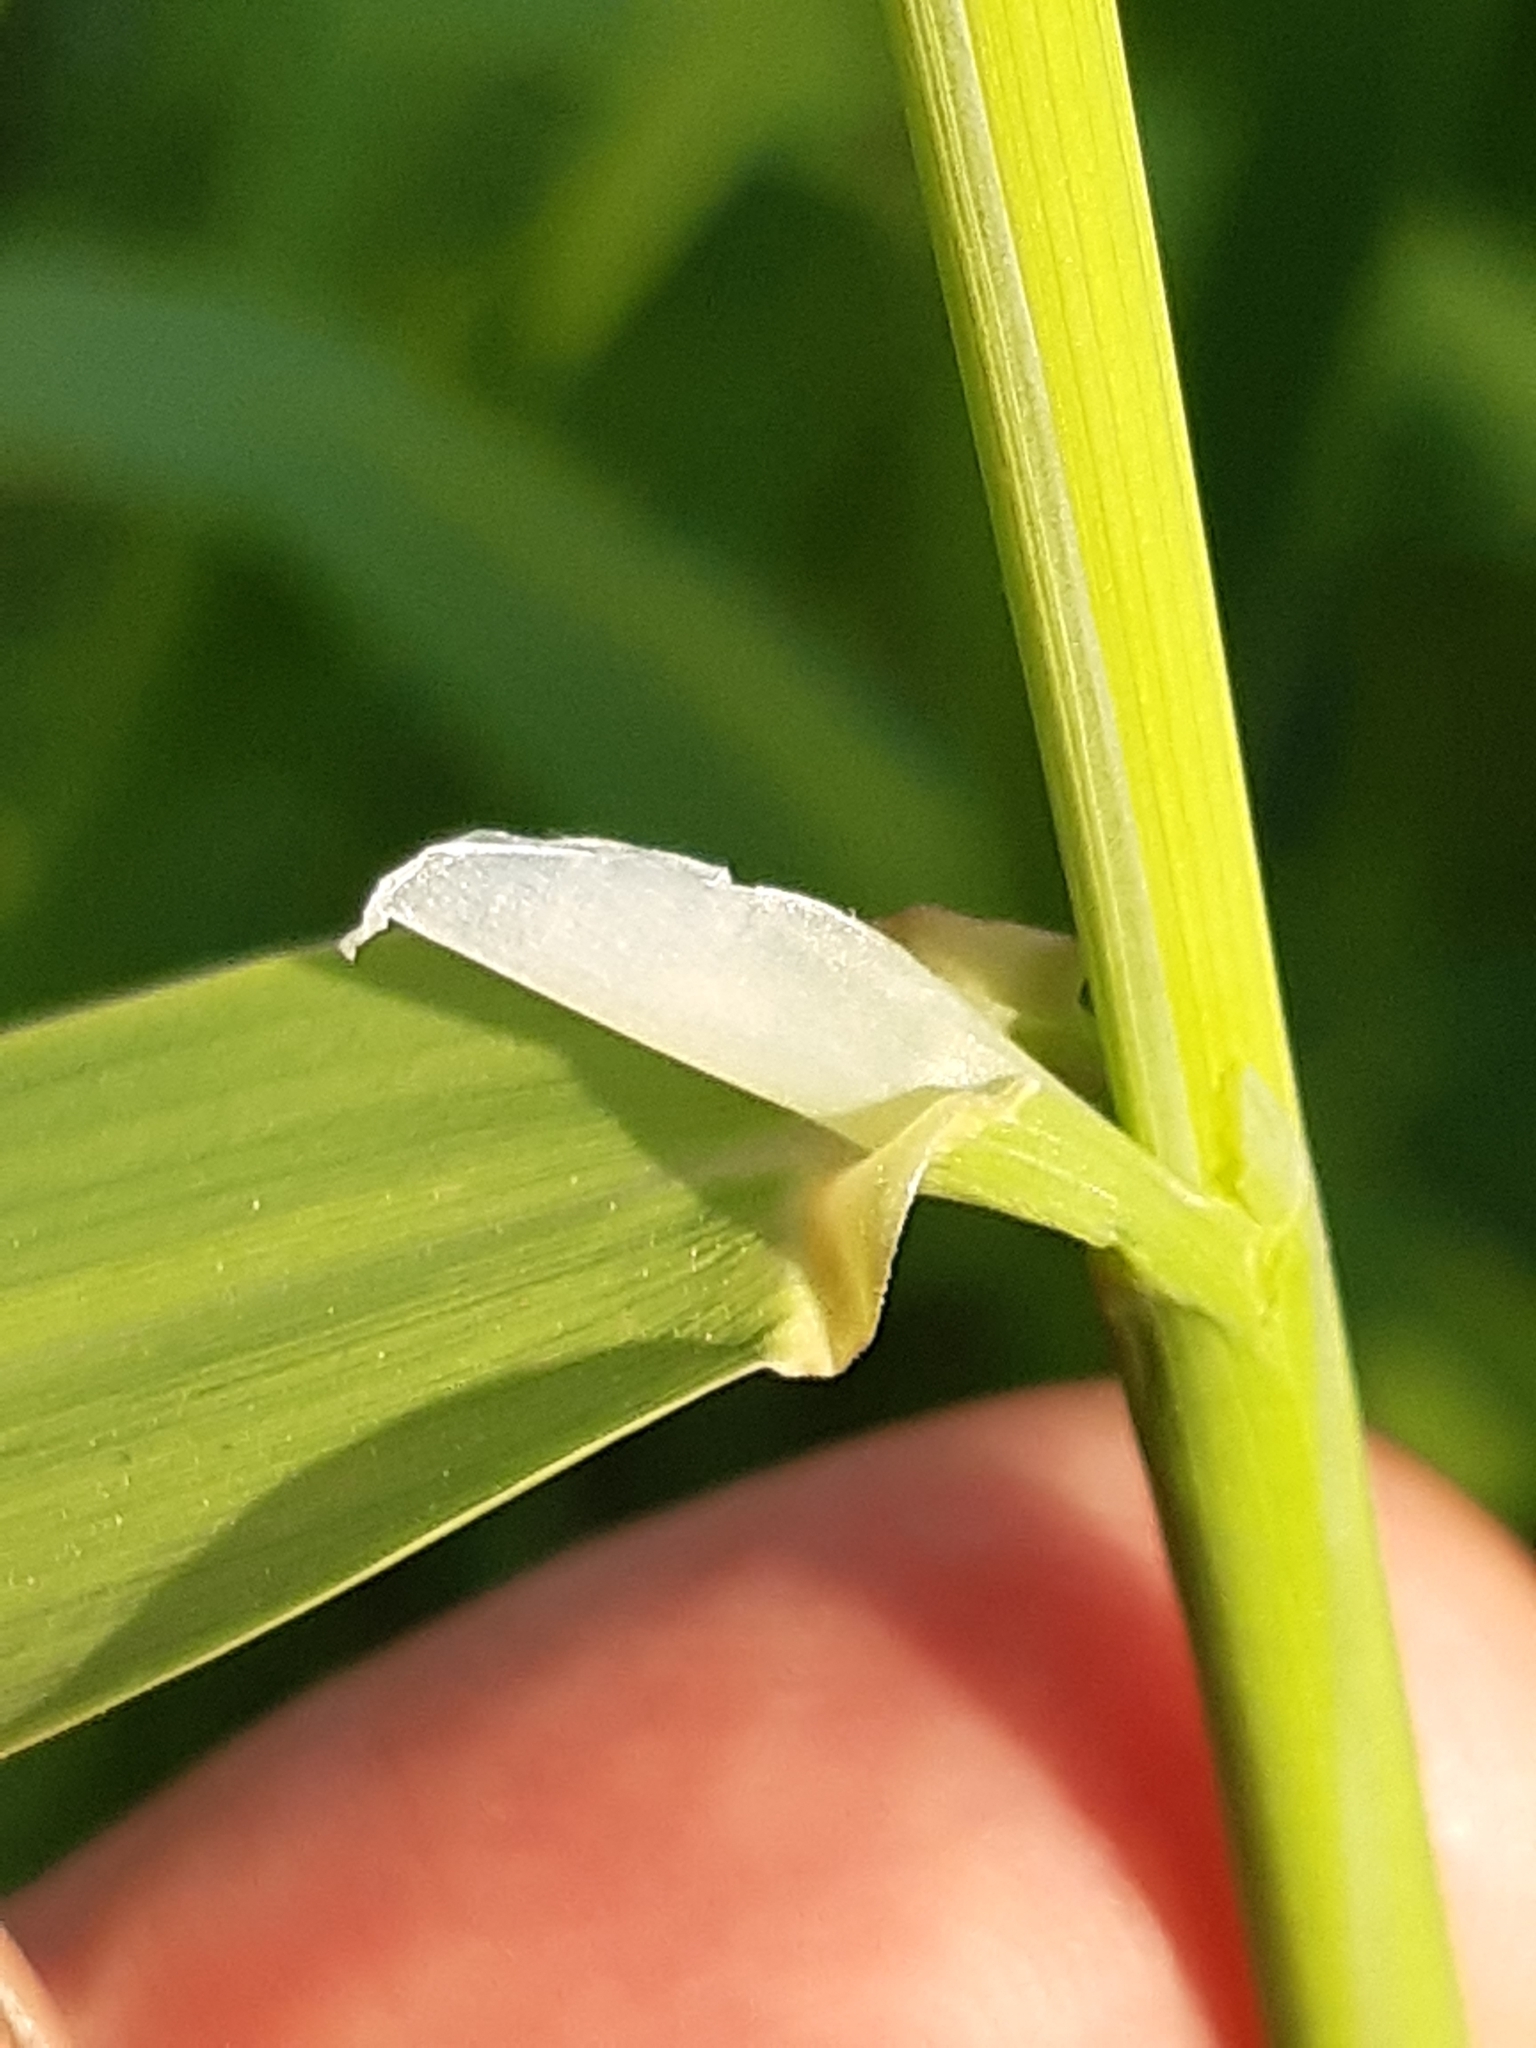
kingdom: Plantae
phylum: Tracheophyta
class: Liliopsida
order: Poales
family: Poaceae
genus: Phalaris
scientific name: Phalaris arundinacea
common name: Reed canary-grass
